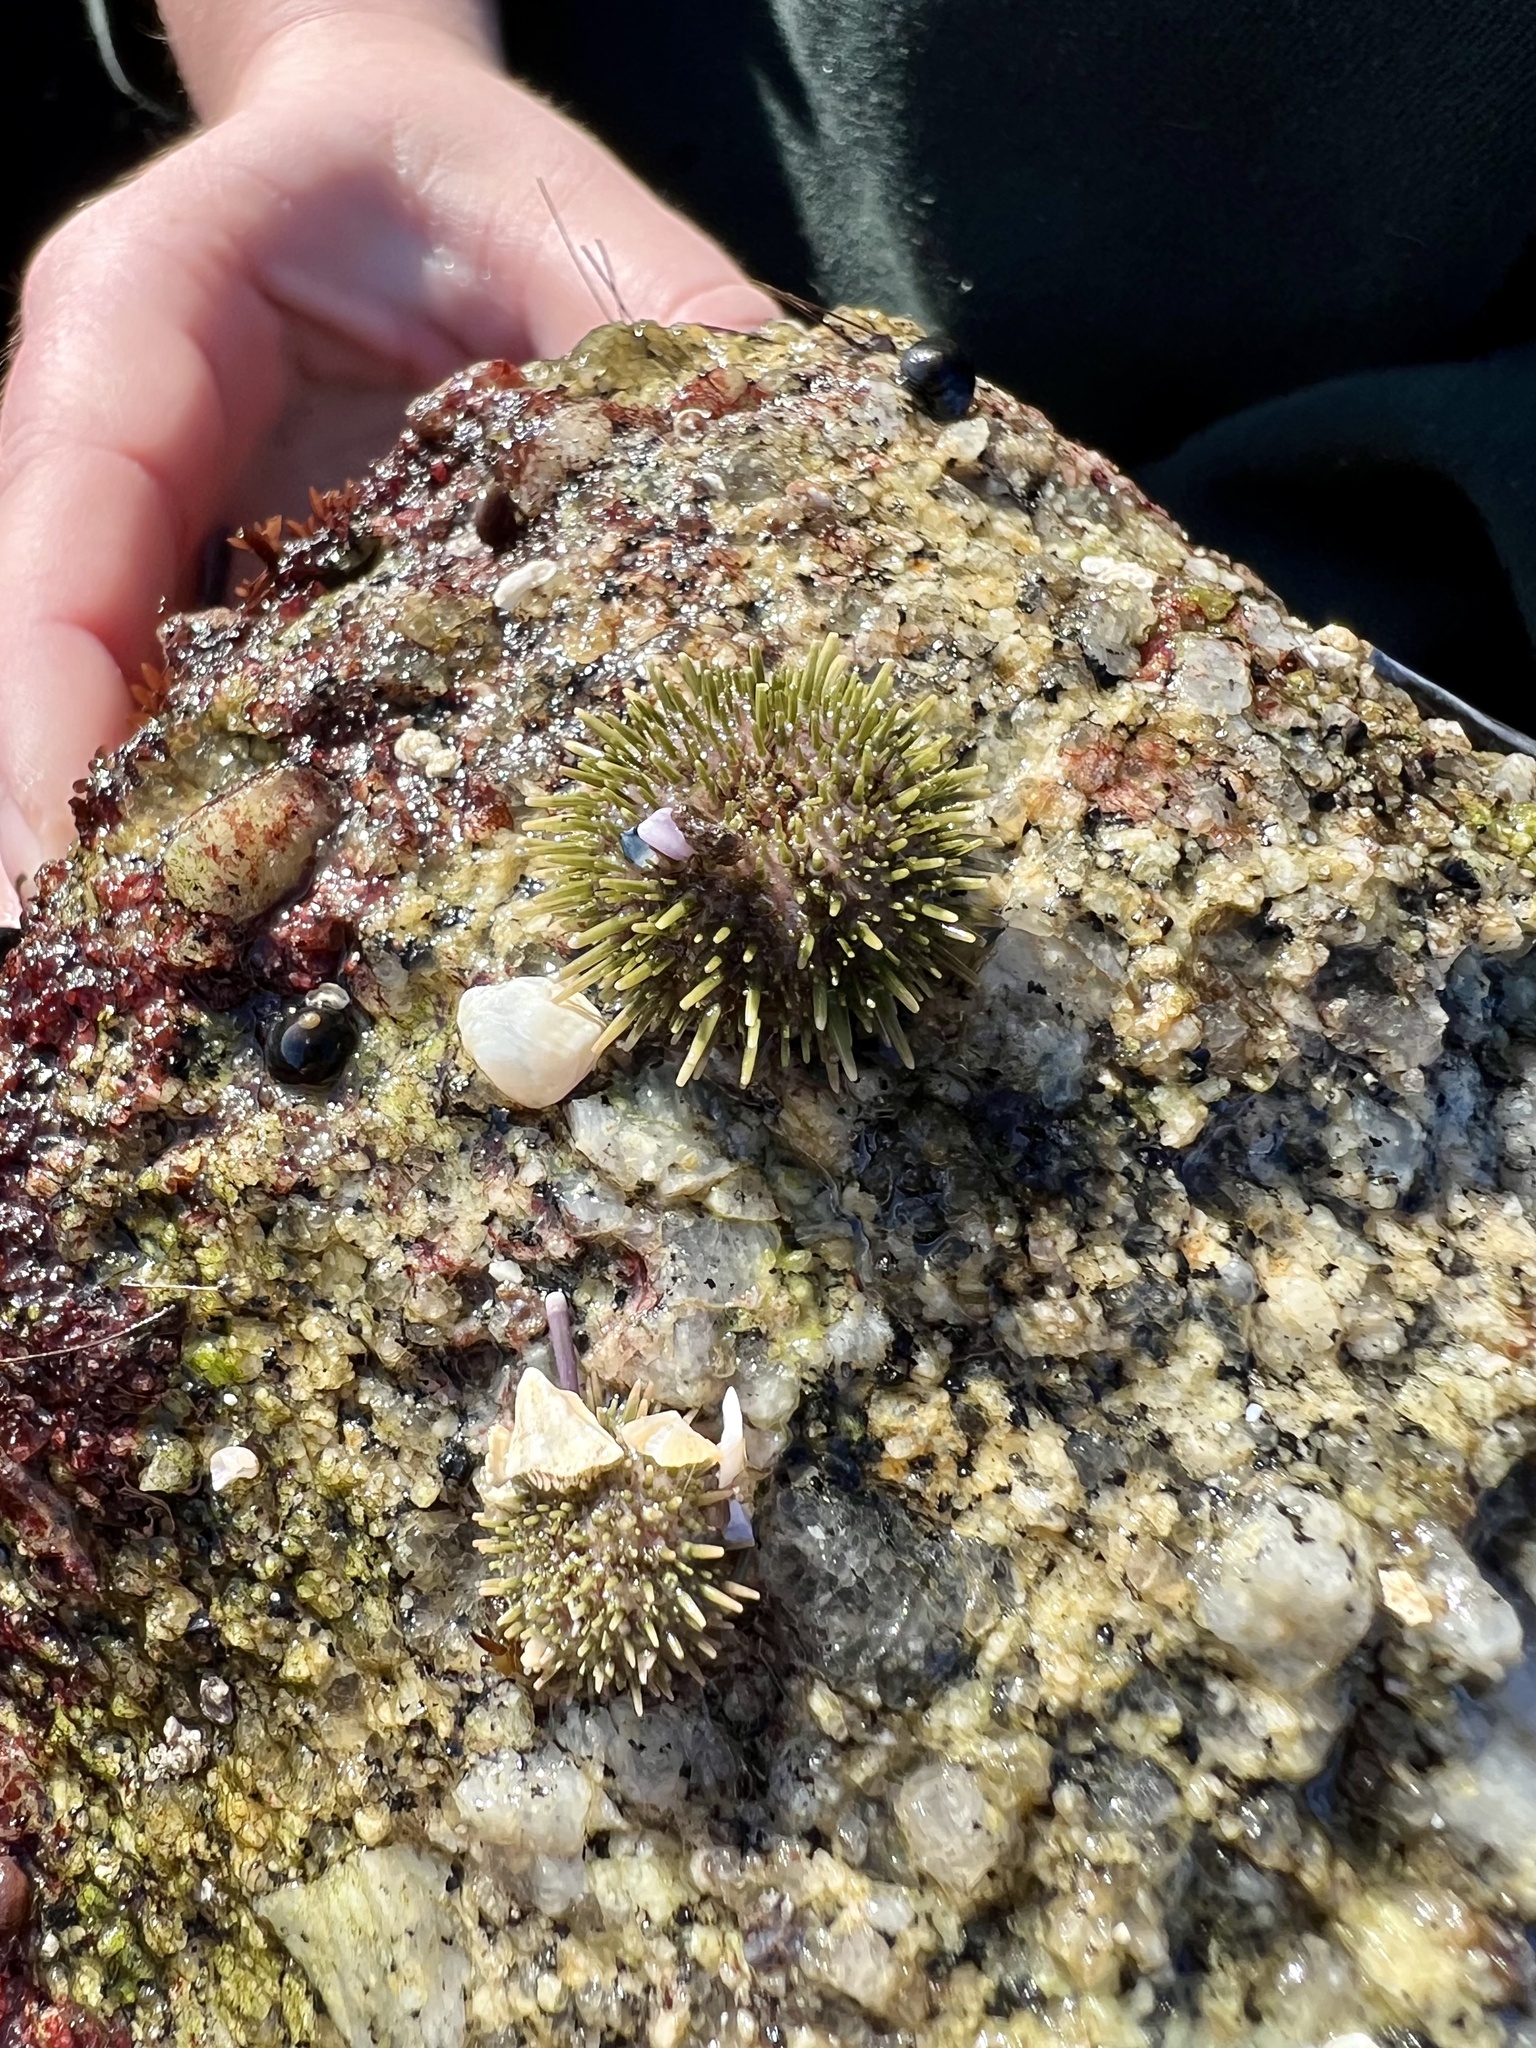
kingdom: Animalia
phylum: Echinodermata
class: Echinoidea
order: Camarodonta
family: Strongylocentrotidae
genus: Strongylocentrotus
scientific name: Strongylocentrotus purpuratus
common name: Purple sea urchin
